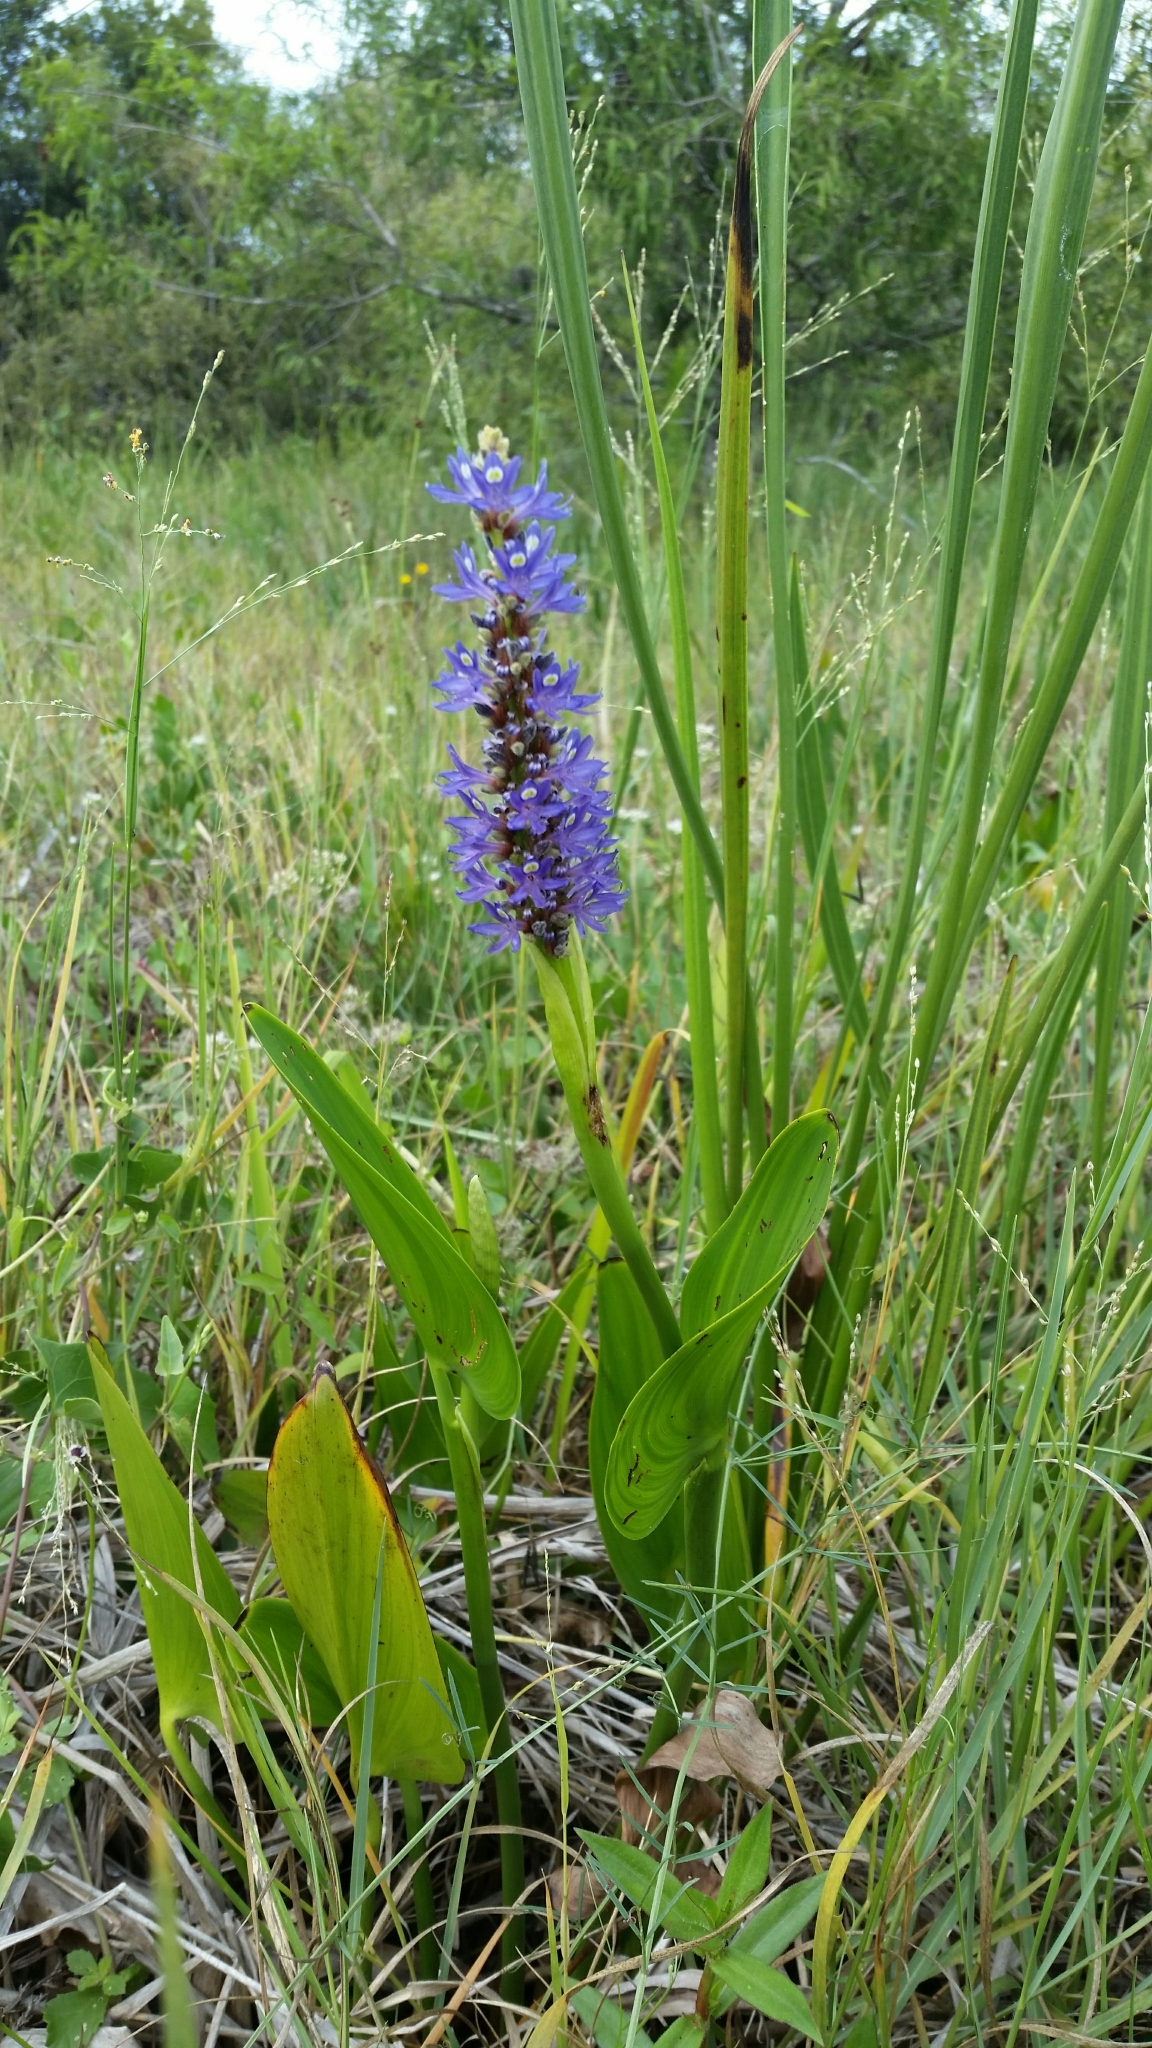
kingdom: Plantae
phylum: Tracheophyta
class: Liliopsida
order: Commelinales
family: Pontederiaceae
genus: Pontederia
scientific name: Pontederia cordata
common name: Pickerelweed
